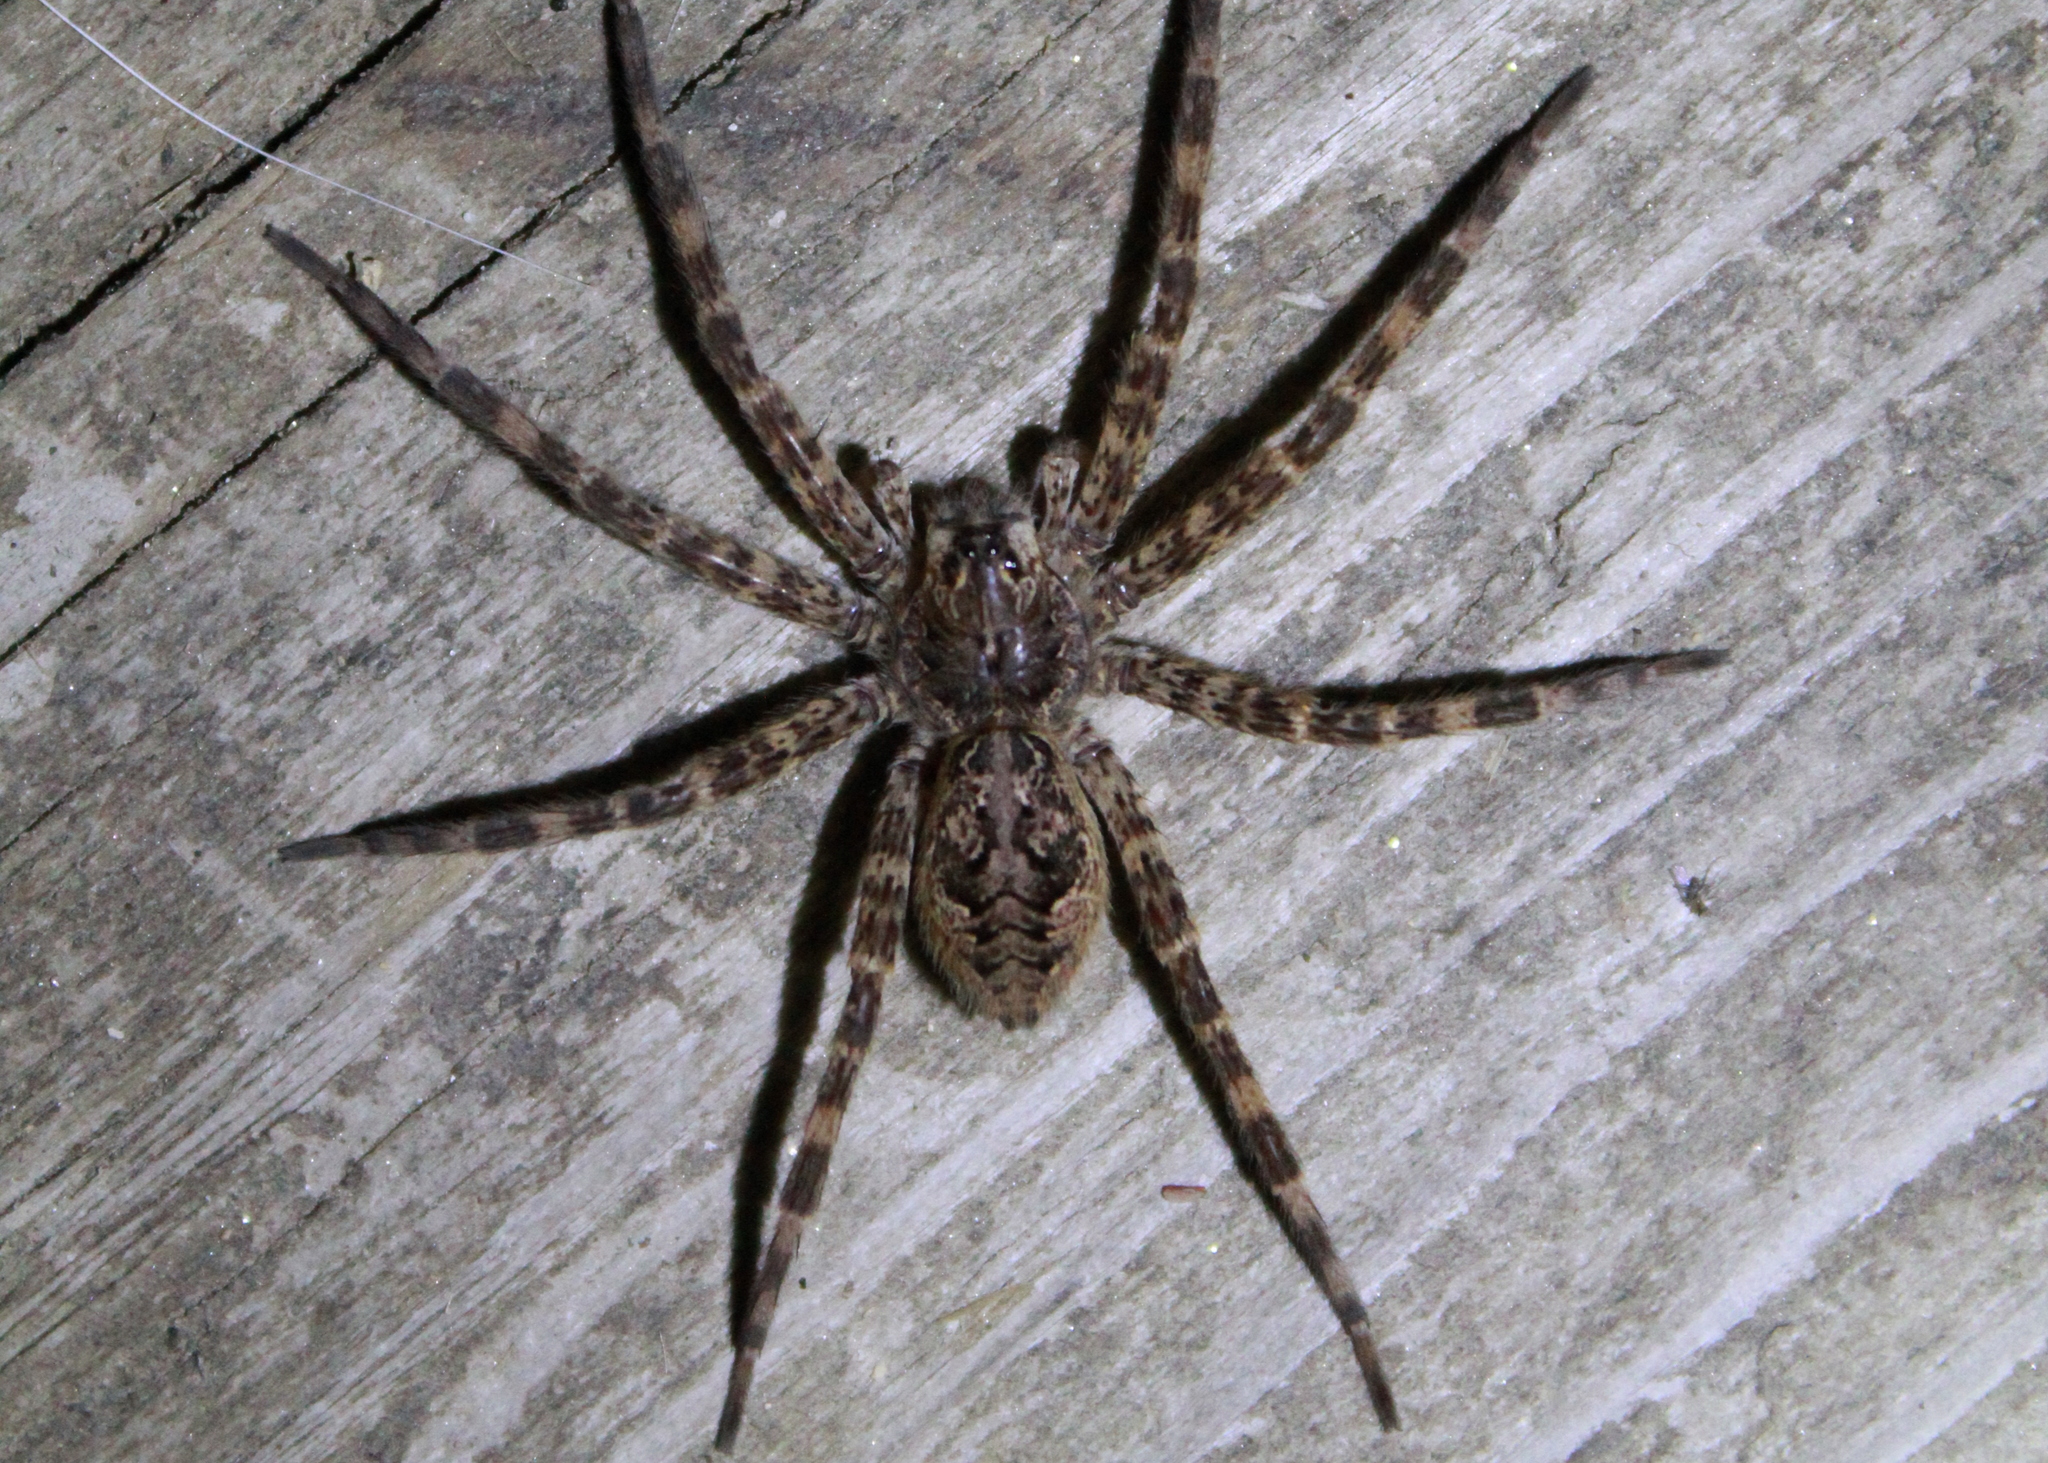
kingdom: Animalia
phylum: Arthropoda
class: Arachnida
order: Araneae
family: Pisauridae
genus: Dolomedes
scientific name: Dolomedes tenebrosus
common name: Dark fishing spider
